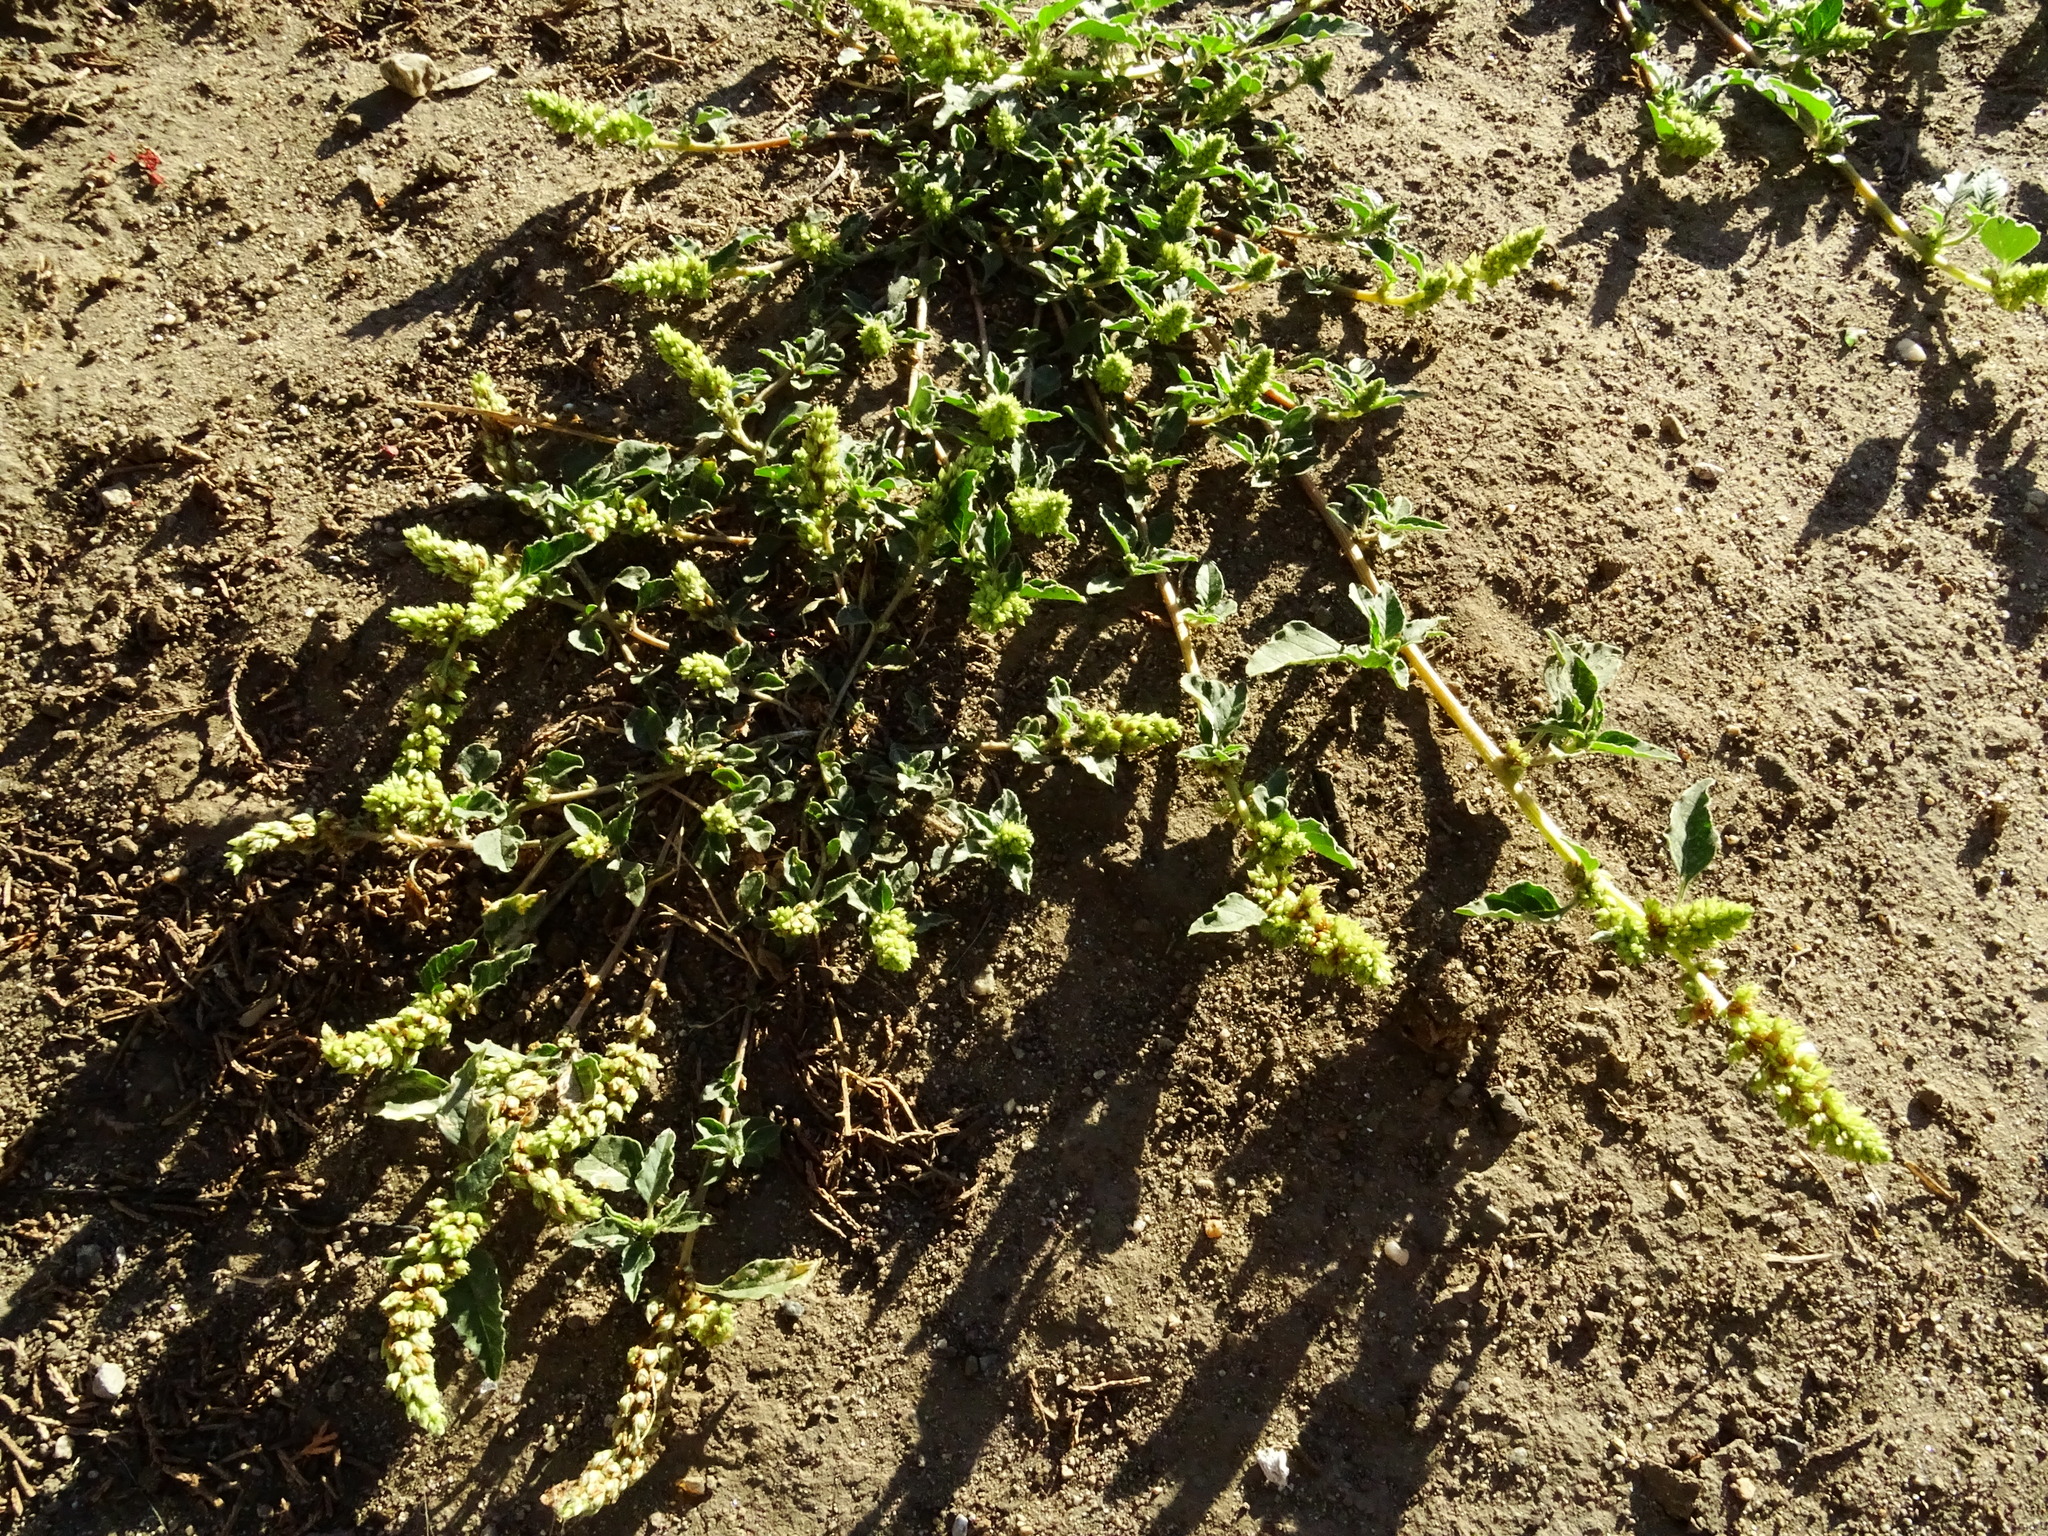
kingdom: Plantae
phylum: Tracheophyta
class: Magnoliopsida
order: Caryophyllales
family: Amaranthaceae
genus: Amaranthus
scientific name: Amaranthus deflexus
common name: Perennial pigweed
